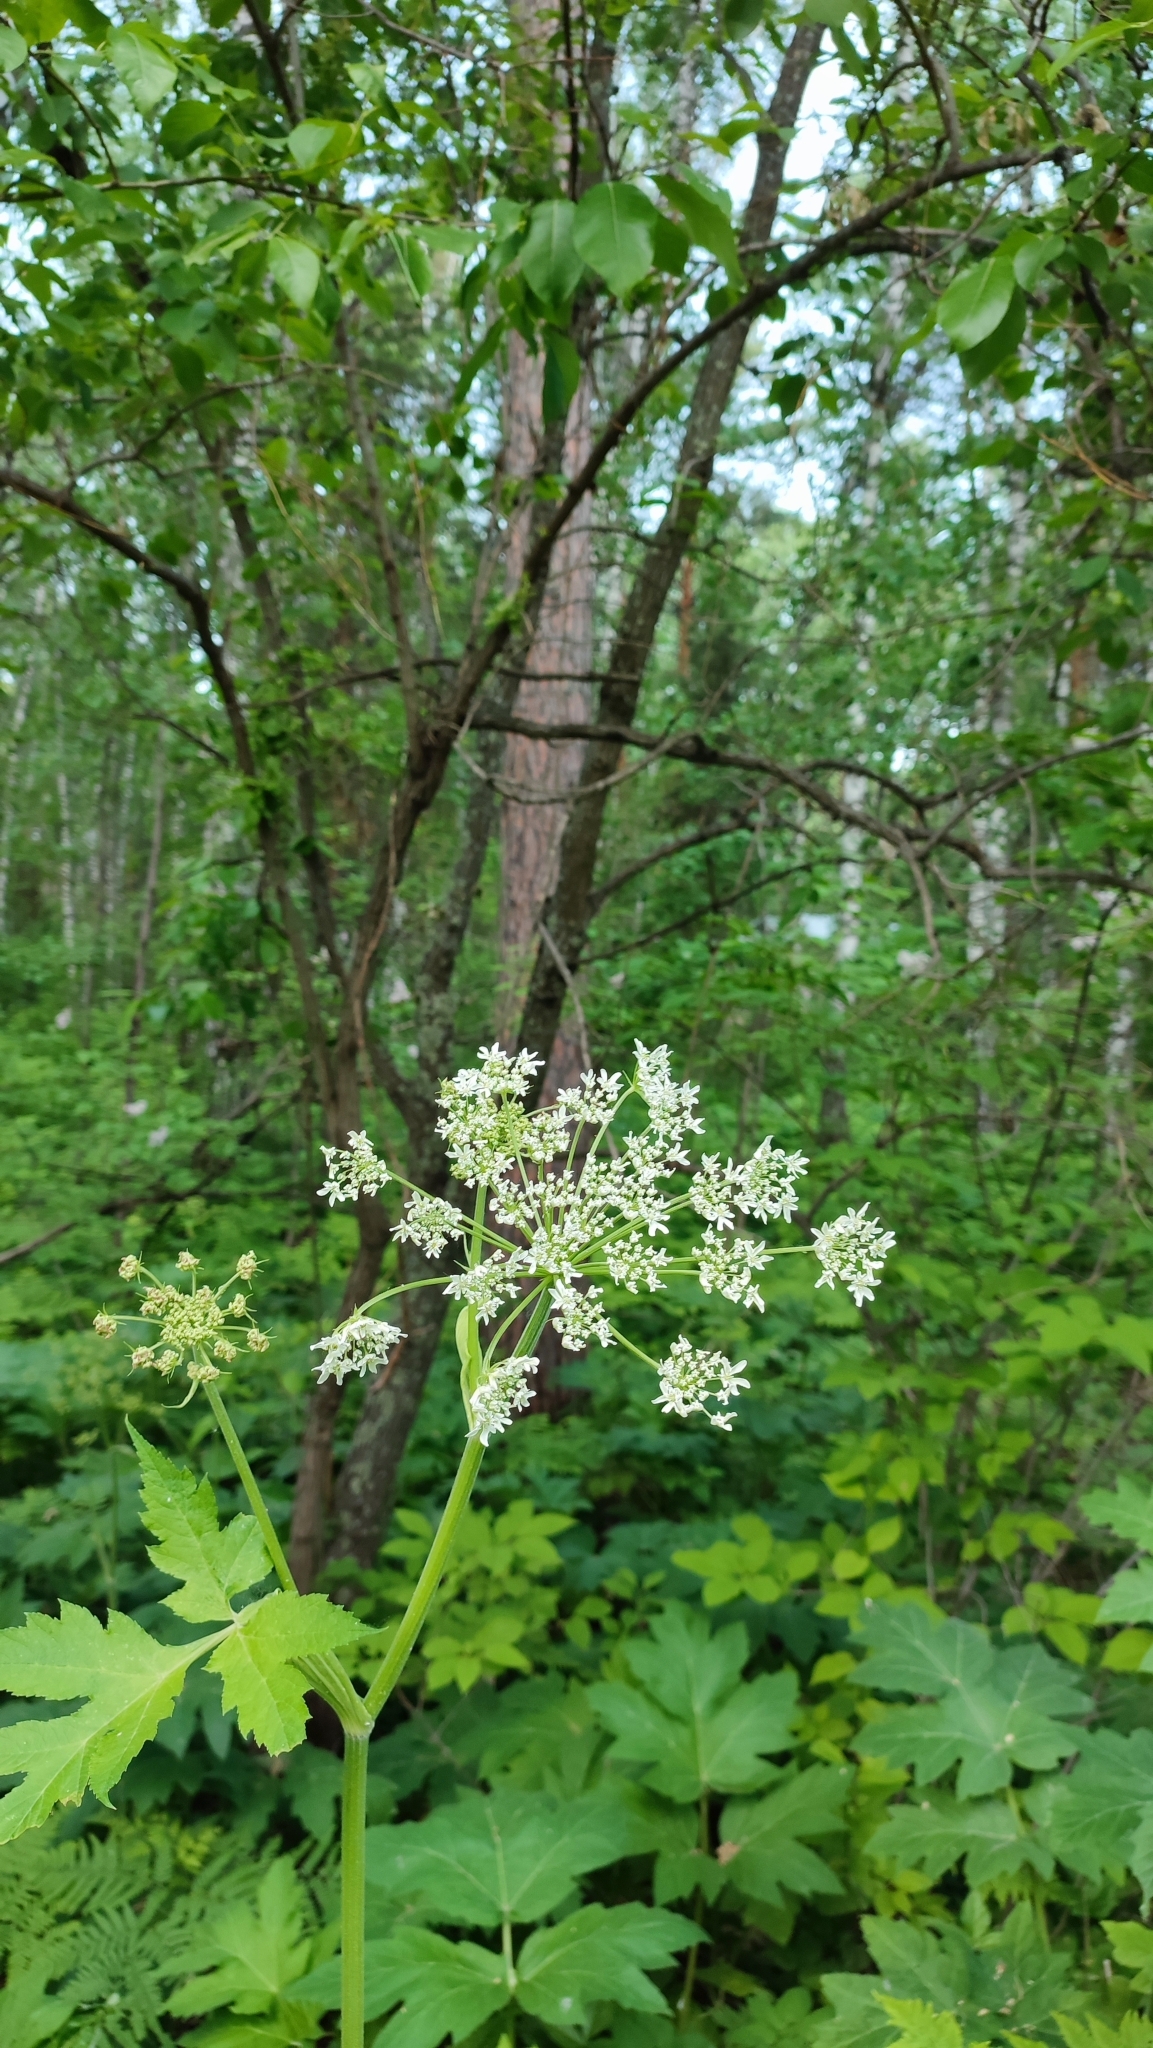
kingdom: Plantae
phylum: Tracheophyta
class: Magnoliopsida
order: Apiales
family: Apiaceae
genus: Heracleum
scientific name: Heracleum dissectum
